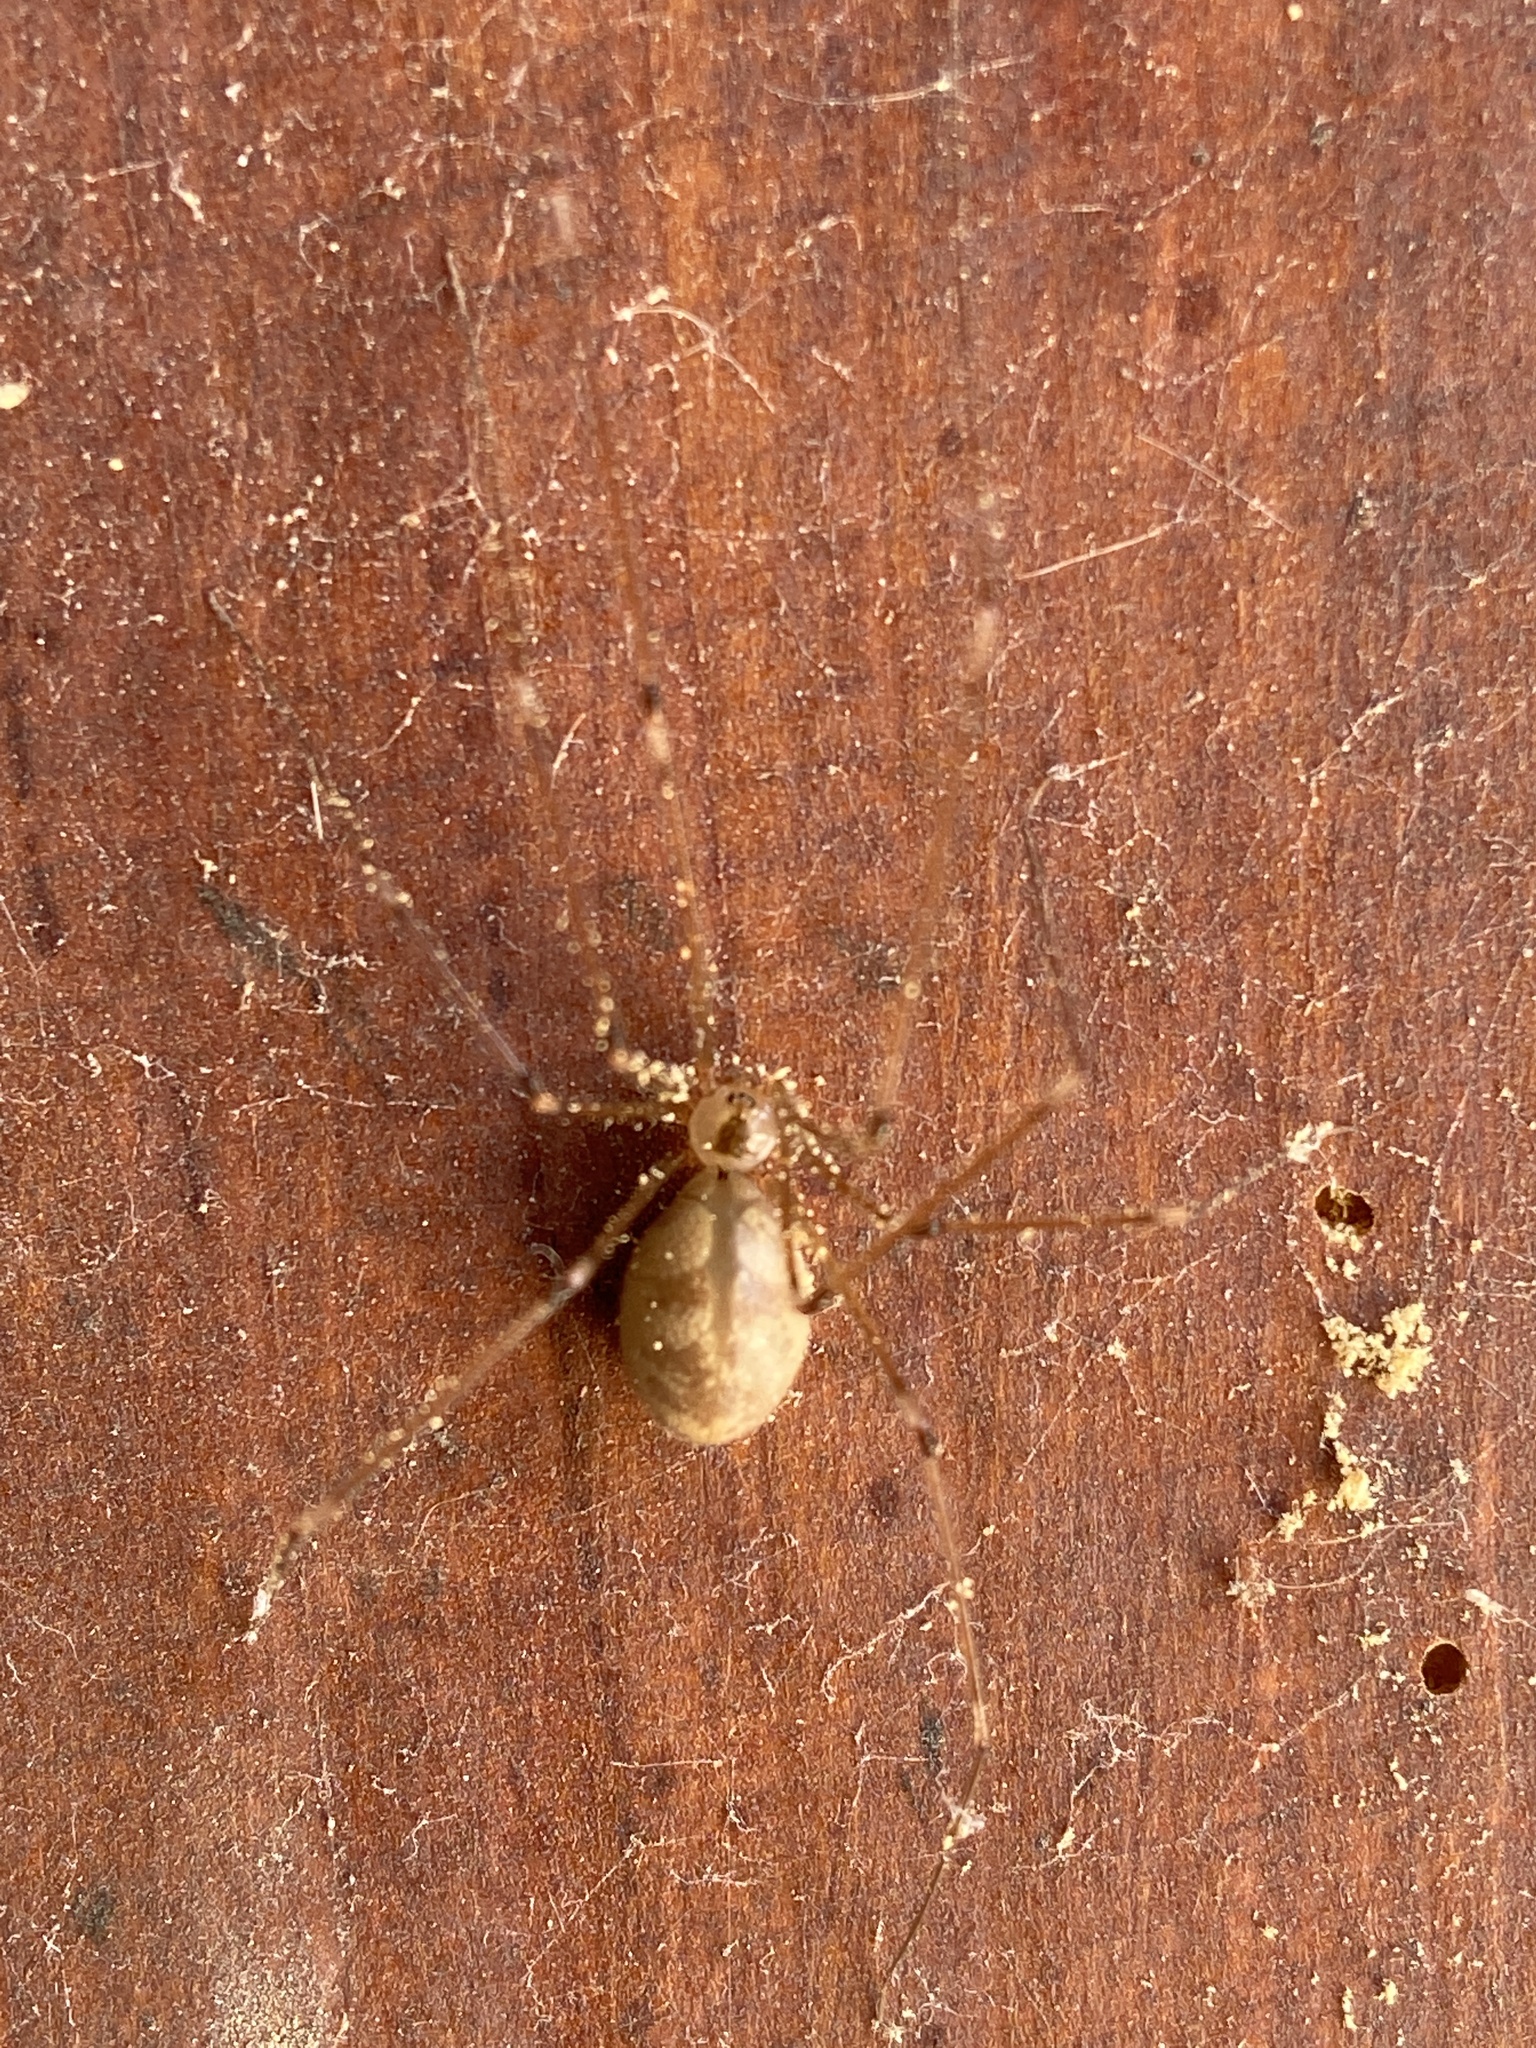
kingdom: Animalia
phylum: Arthropoda
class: Arachnida
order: Araneae
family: Pholcidae
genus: Pholcus
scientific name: Pholcus phalangioides
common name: Longbodied cellar spider
